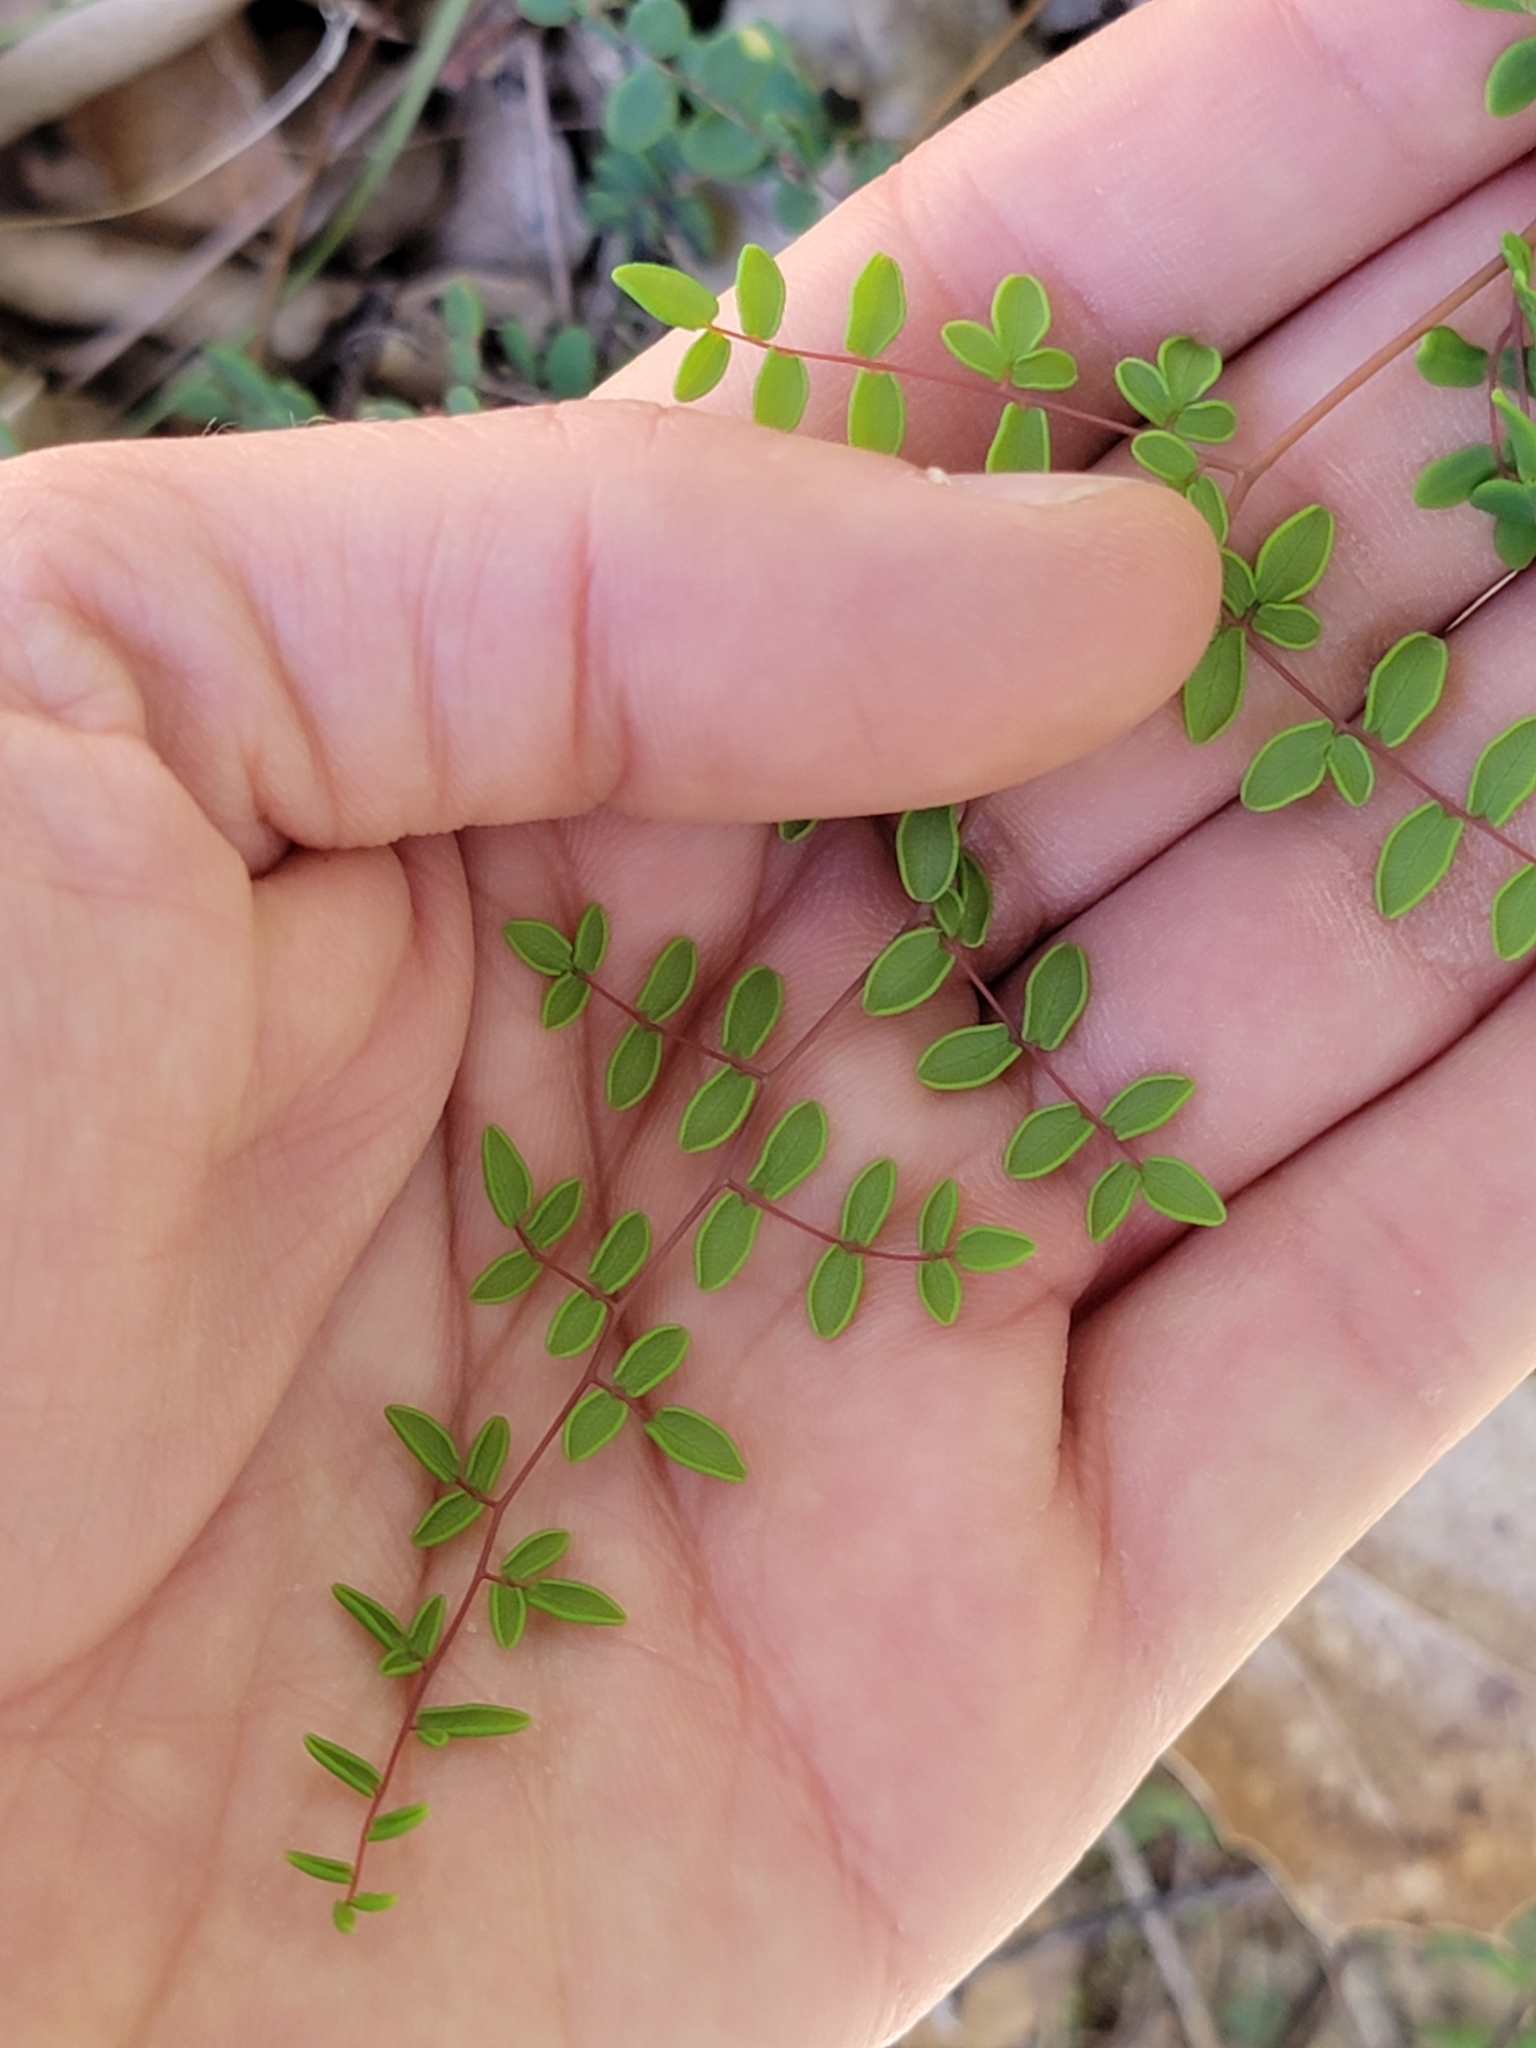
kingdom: Plantae
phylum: Tracheophyta
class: Polypodiopsida
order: Polypodiales
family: Pteridaceae
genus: Pellaea
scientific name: Pellaea andromedifolia
